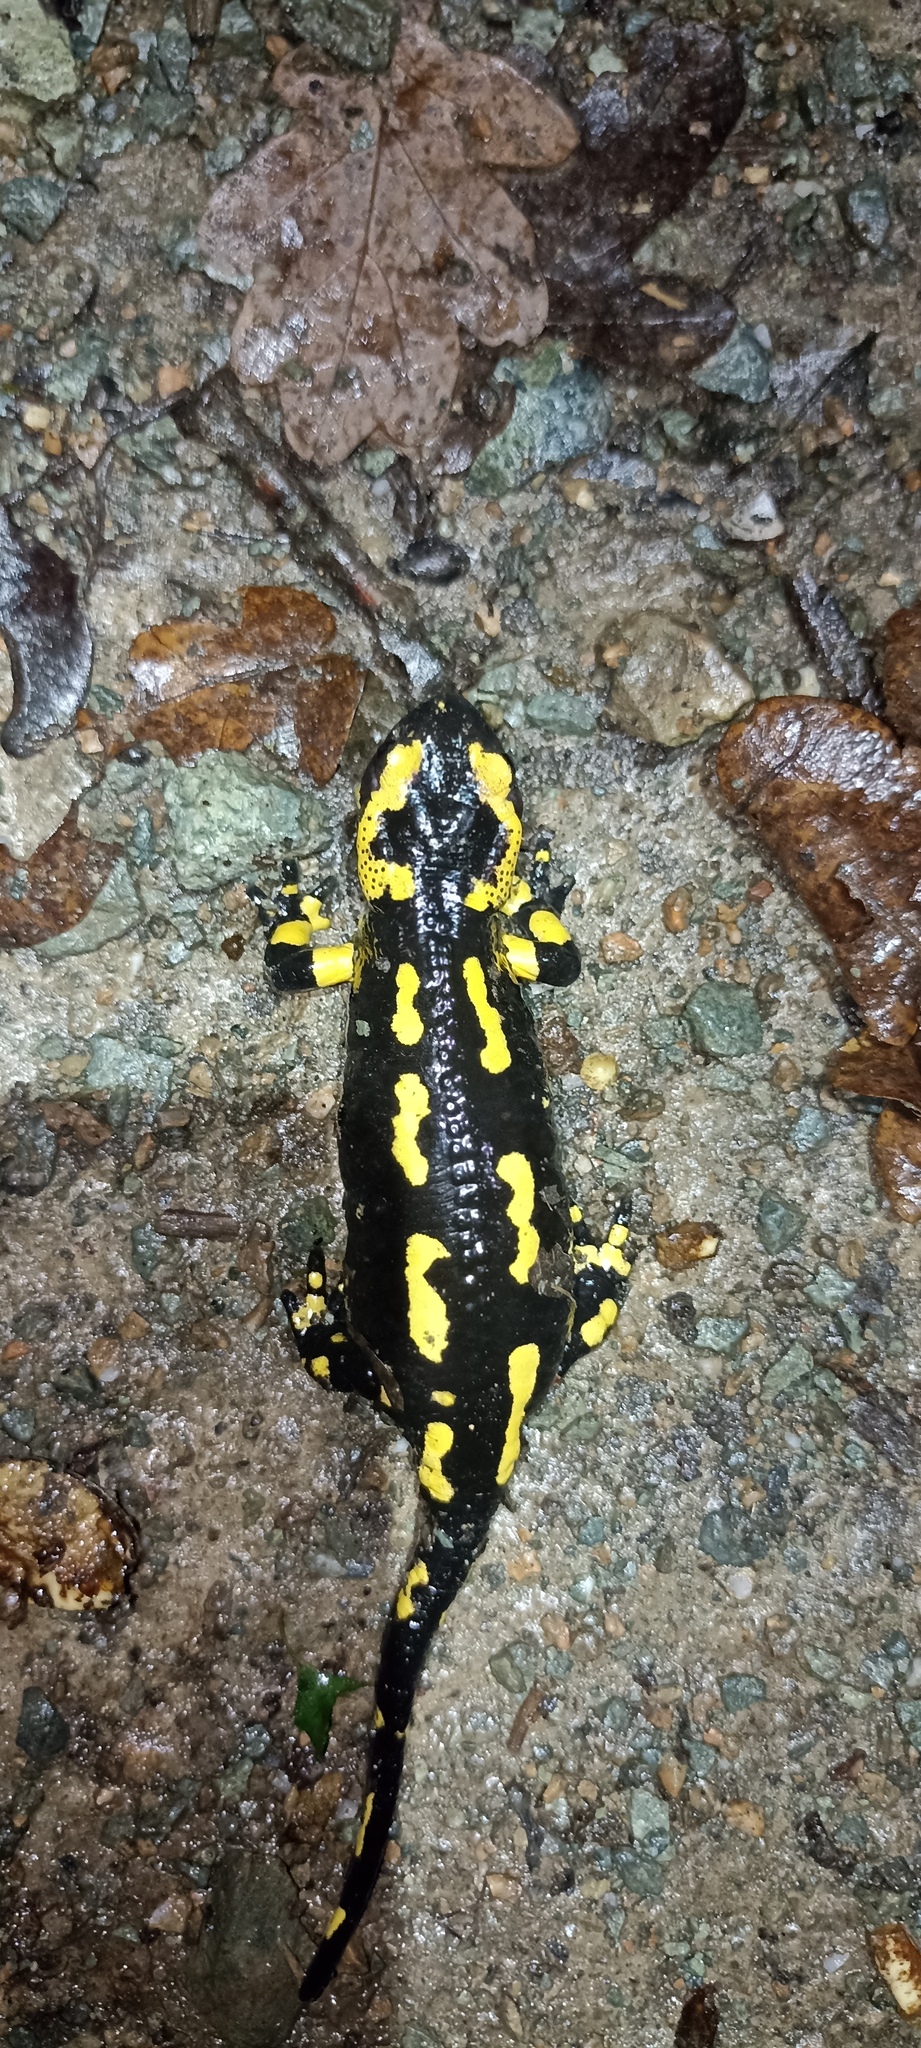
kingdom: Animalia
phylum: Chordata
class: Amphibia
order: Caudata
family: Salamandridae
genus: Salamandra
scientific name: Salamandra salamandra
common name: Fire salamander
